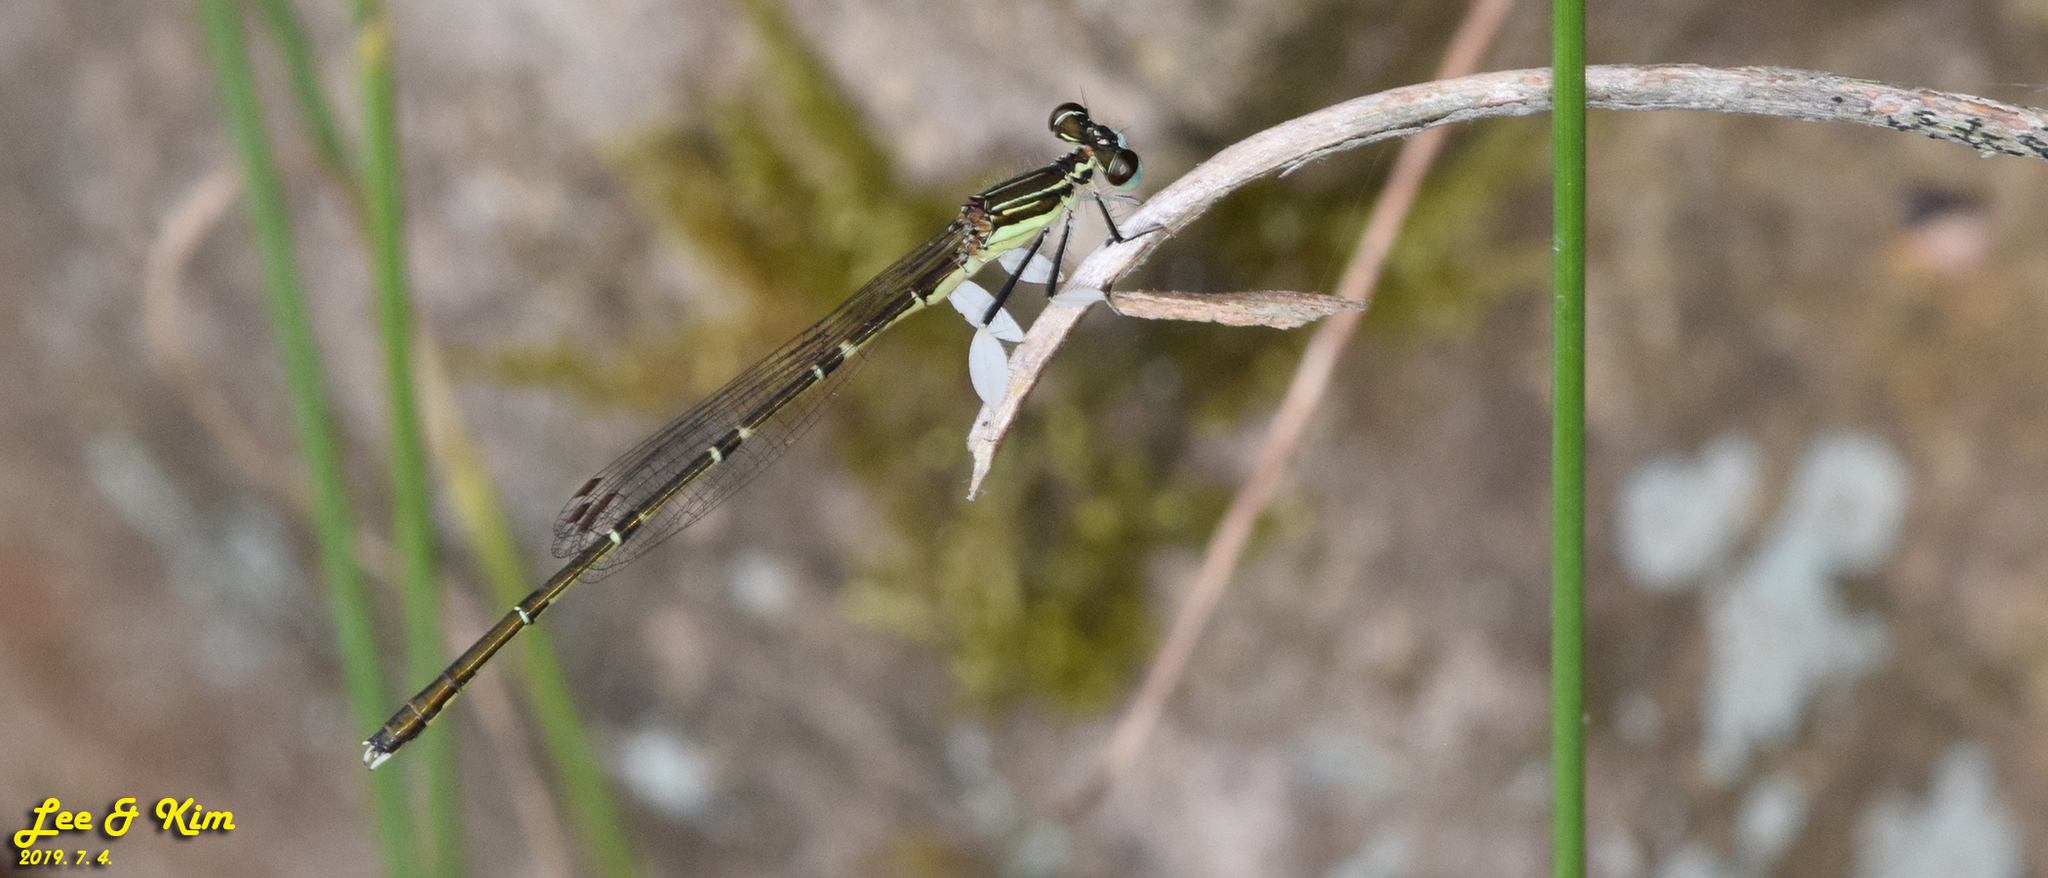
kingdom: Animalia
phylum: Arthropoda
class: Insecta
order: Odonata
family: Platycnemididae
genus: Platycnemis
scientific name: Platycnemis phyllopoda
